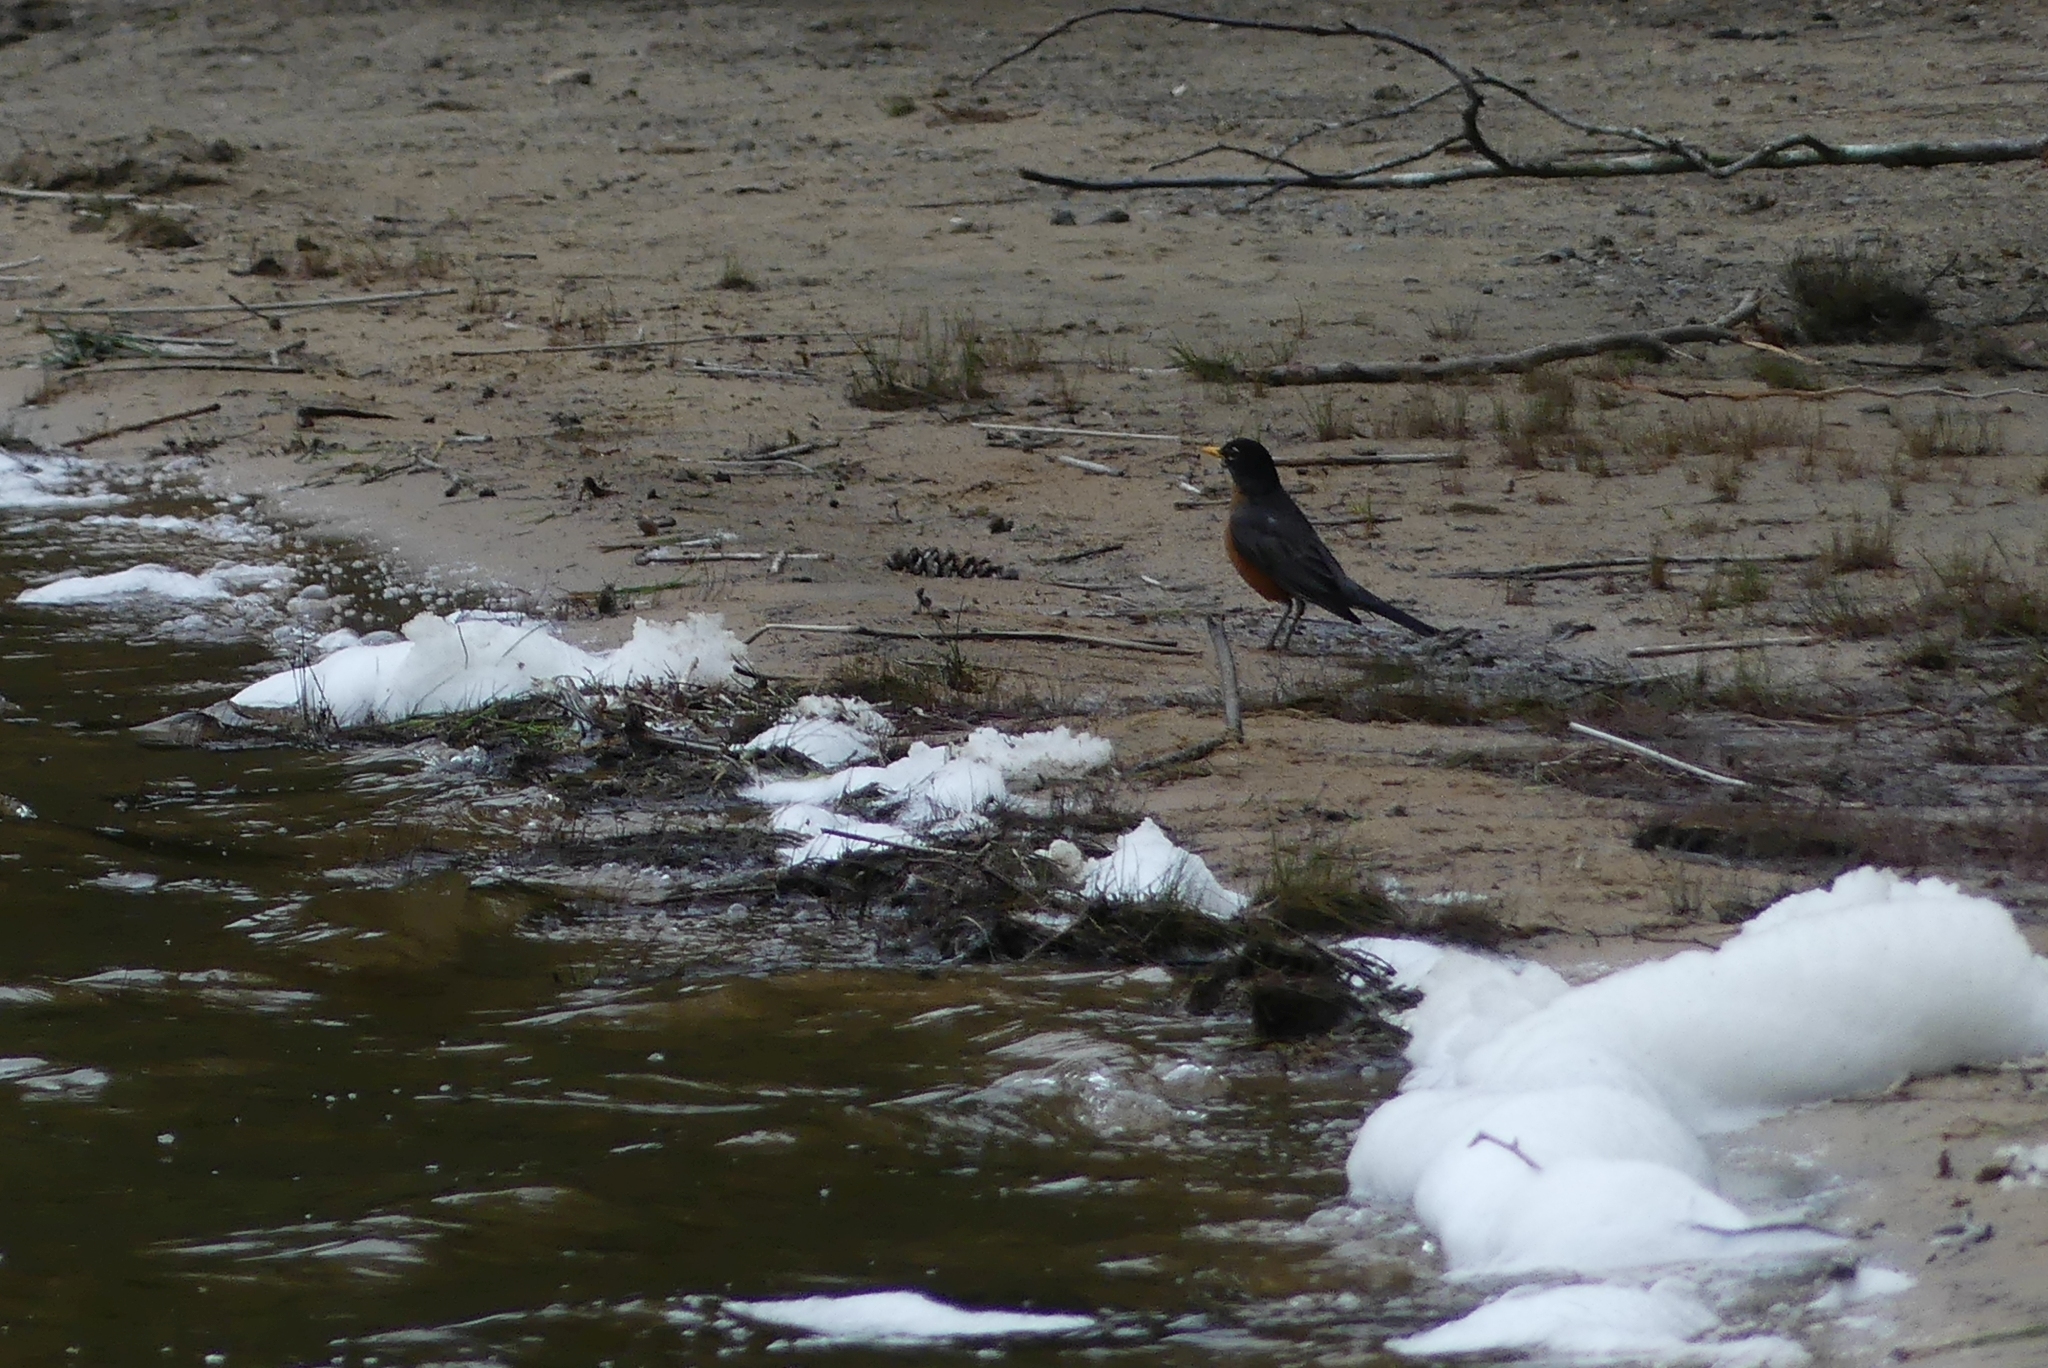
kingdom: Animalia
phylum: Chordata
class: Aves
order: Passeriformes
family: Turdidae
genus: Turdus
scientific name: Turdus migratorius
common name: American robin
